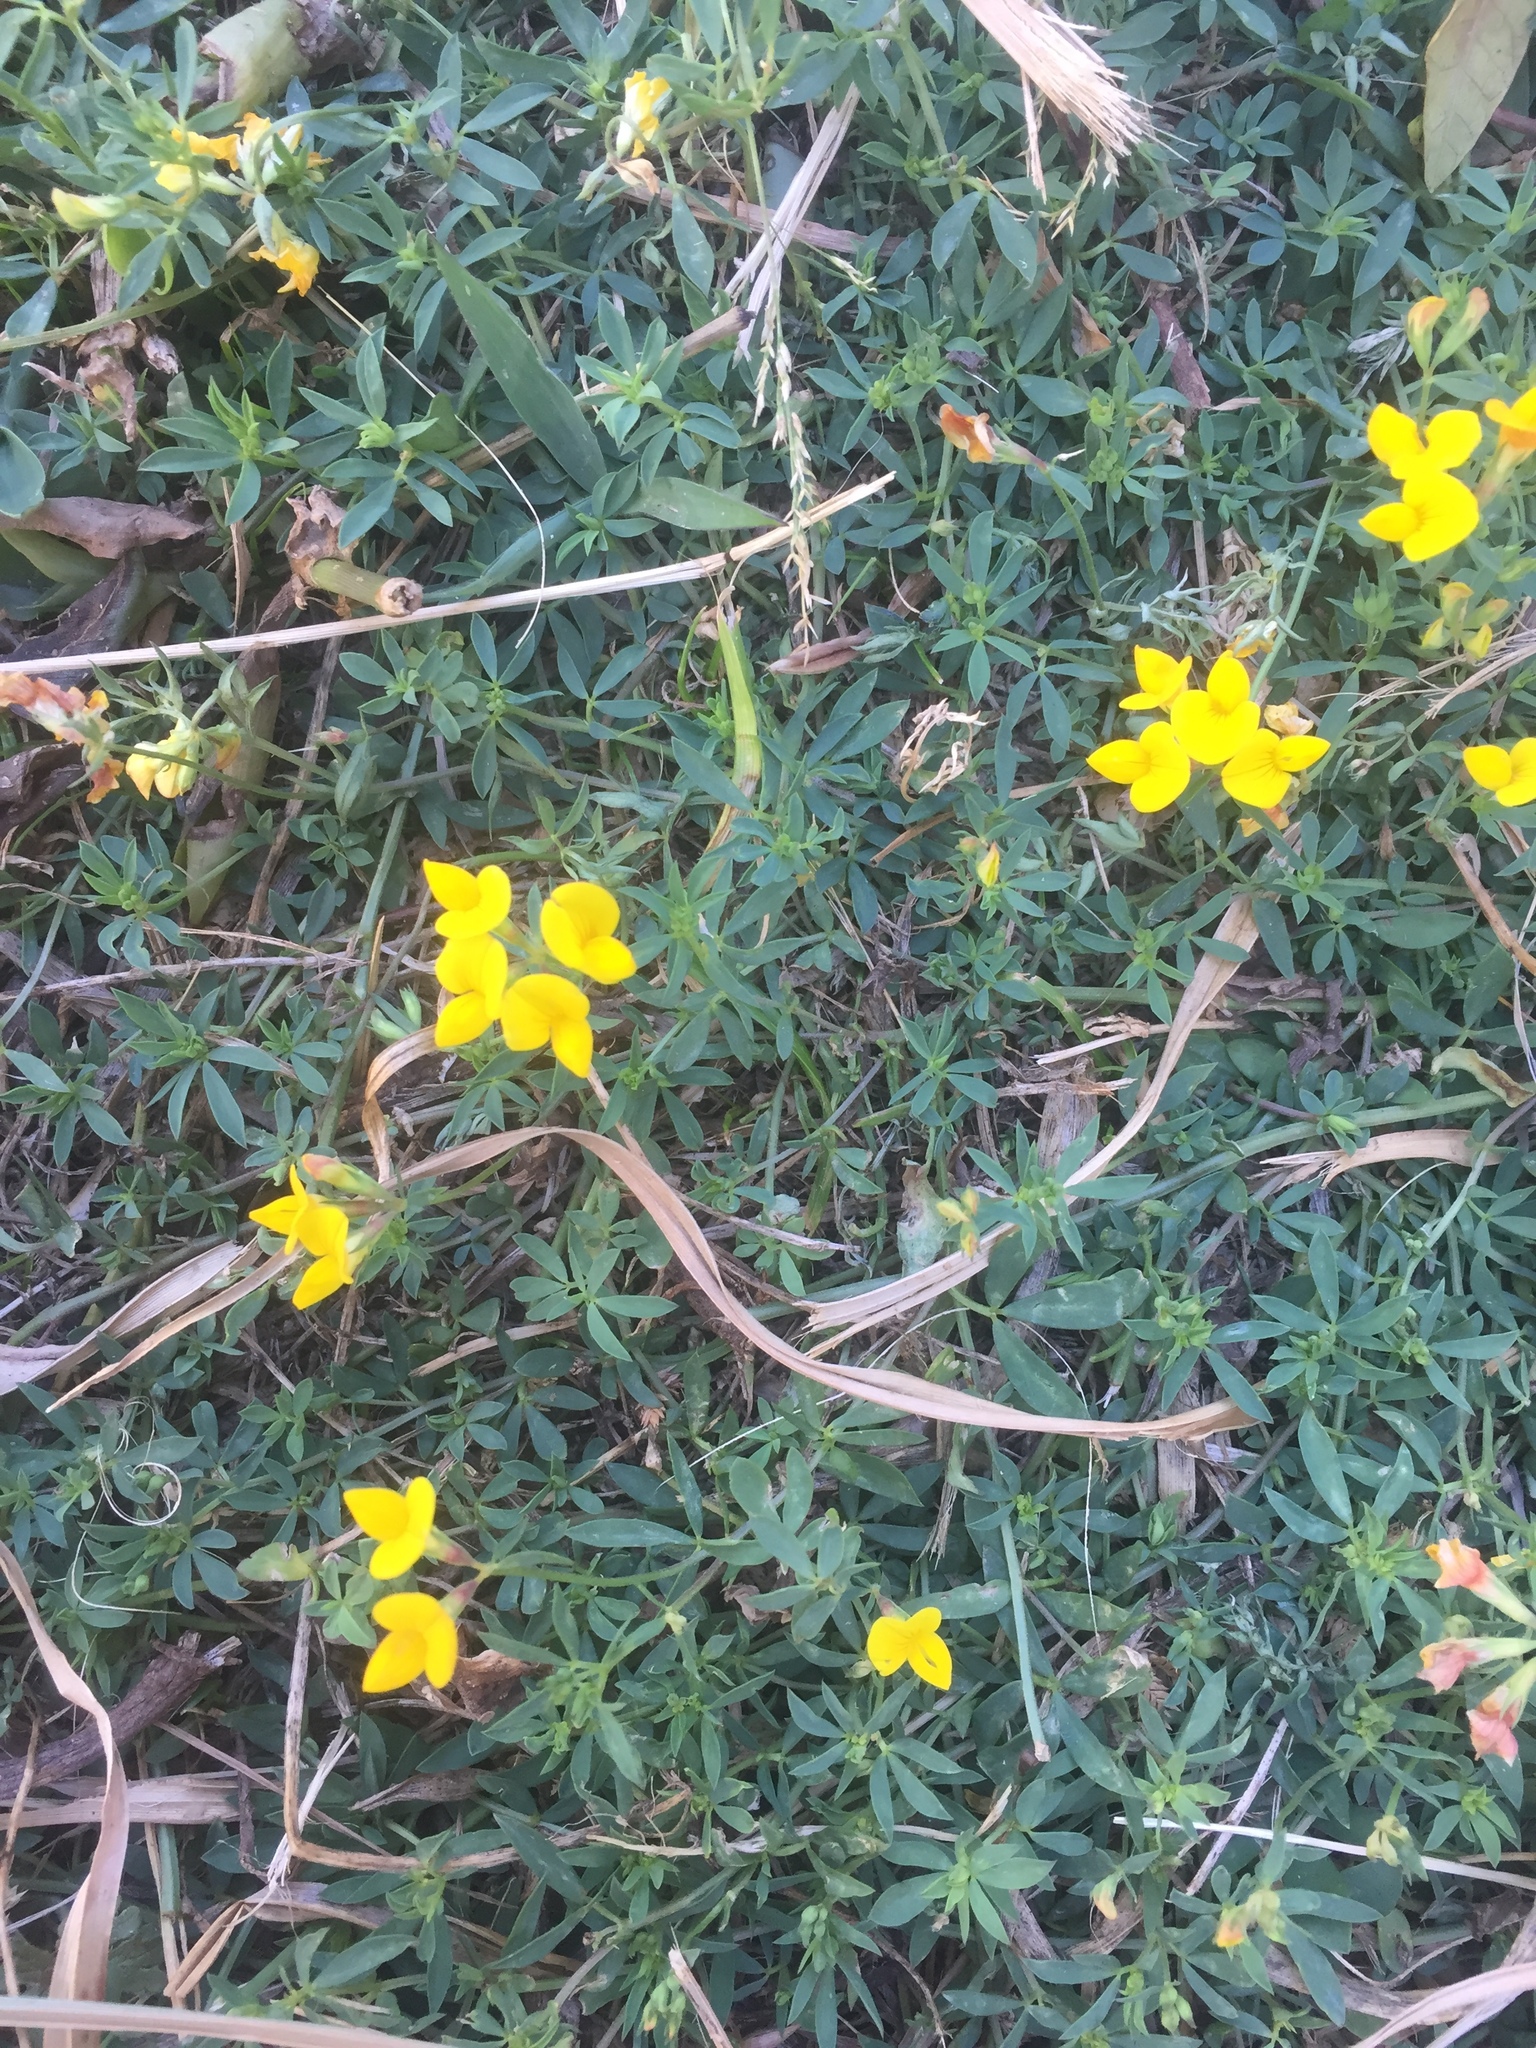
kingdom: Plantae
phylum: Tracheophyta
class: Magnoliopsida
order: Fabales
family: Fabaceae
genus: Lotus
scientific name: Lotus corniculatus
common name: Common bird's-foot-trefoil
